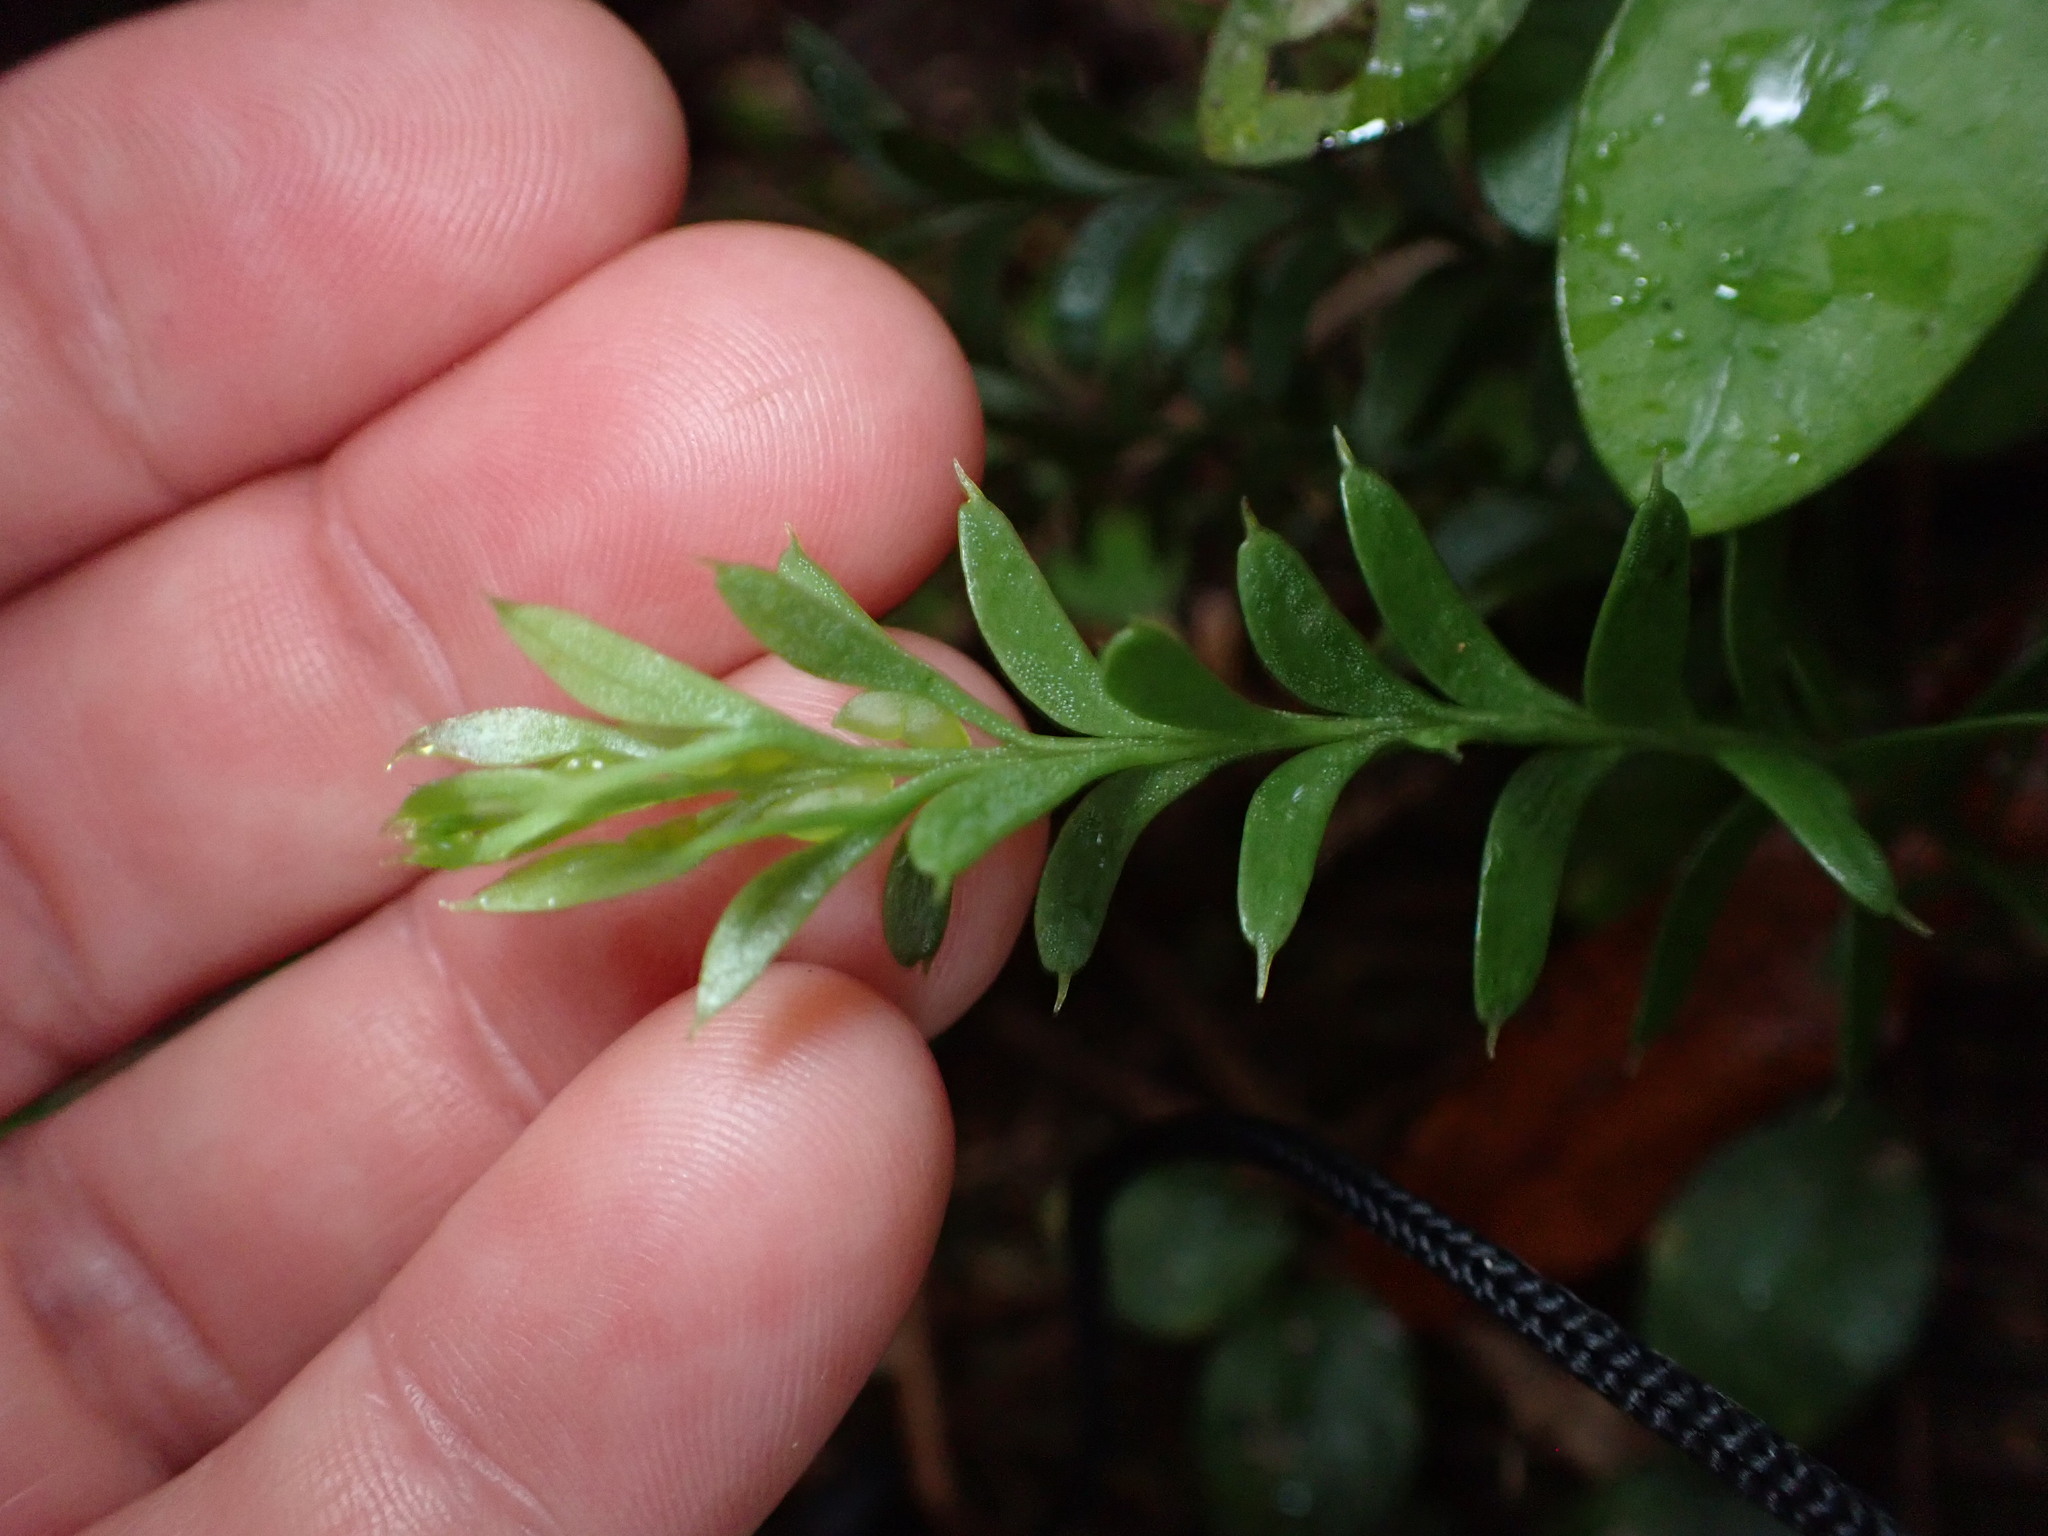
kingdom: Plantae
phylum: Tracheophyta
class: Polypodiopsida
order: Psilotales
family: Psilotaceae
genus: Tmesipteris
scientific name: Tmesipteris tannensis
